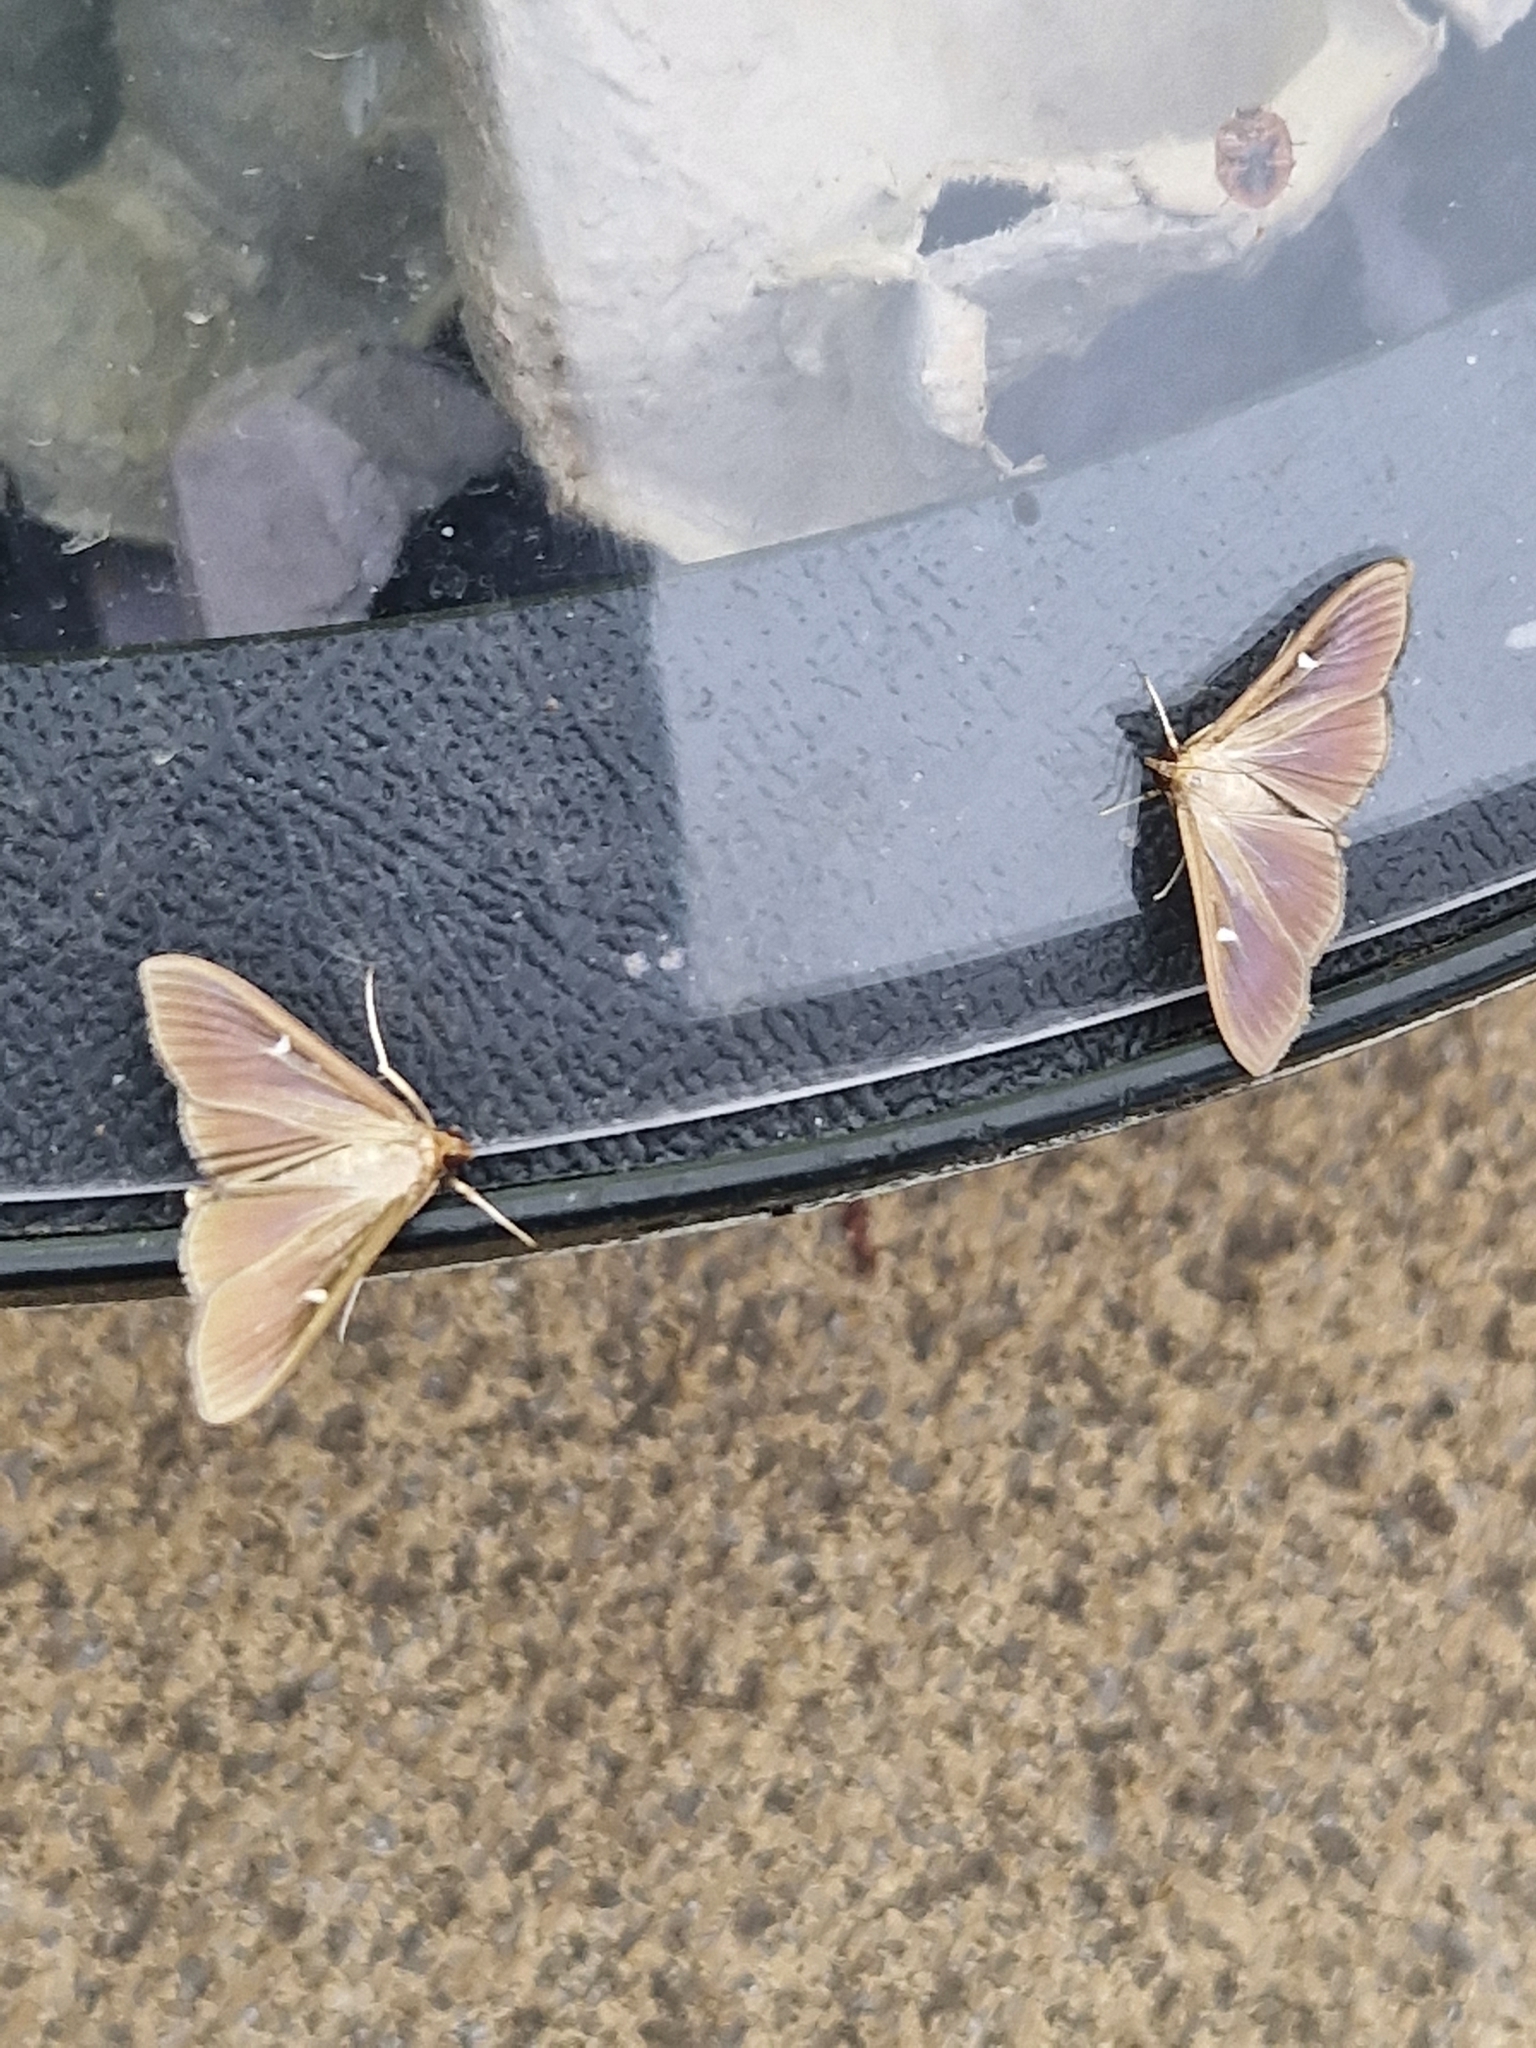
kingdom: Animalia
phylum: Arthropoda
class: Insecta
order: Lepidoptera
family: Crambidae
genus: Cydalima
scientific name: Cydalima perspectalis
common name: Box tree moth
